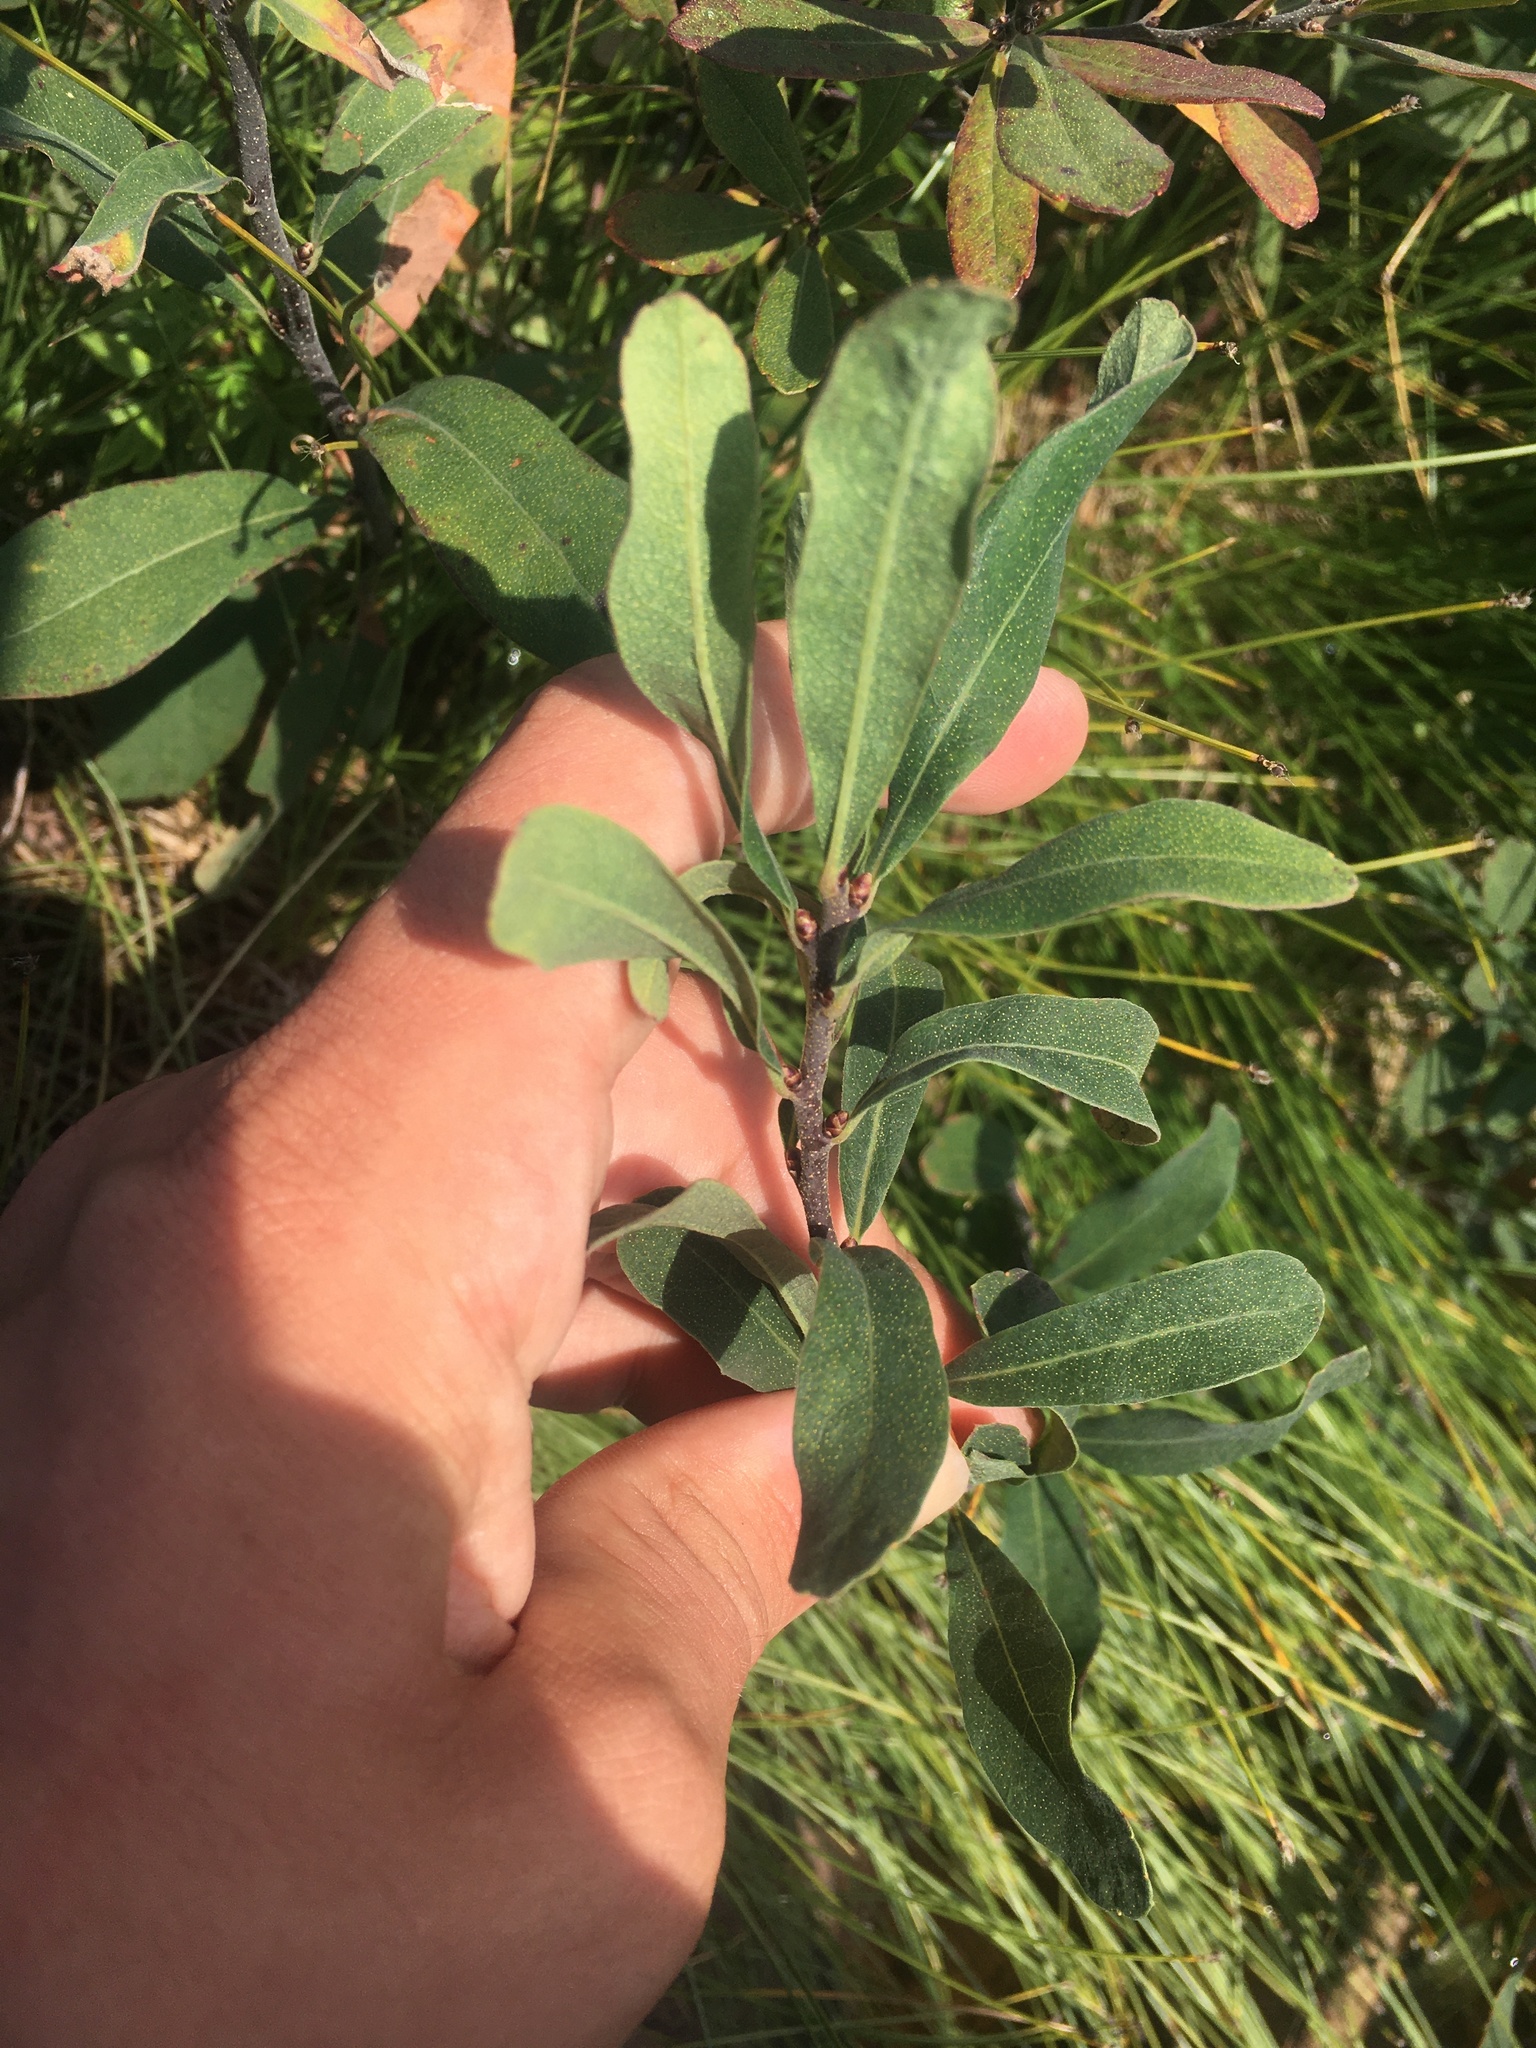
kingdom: Plantae
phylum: Tracheophyta
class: Magnoliopsida
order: Fagales
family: Myricaceae
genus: Myrica
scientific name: Myrica gale
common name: Sweet gale
